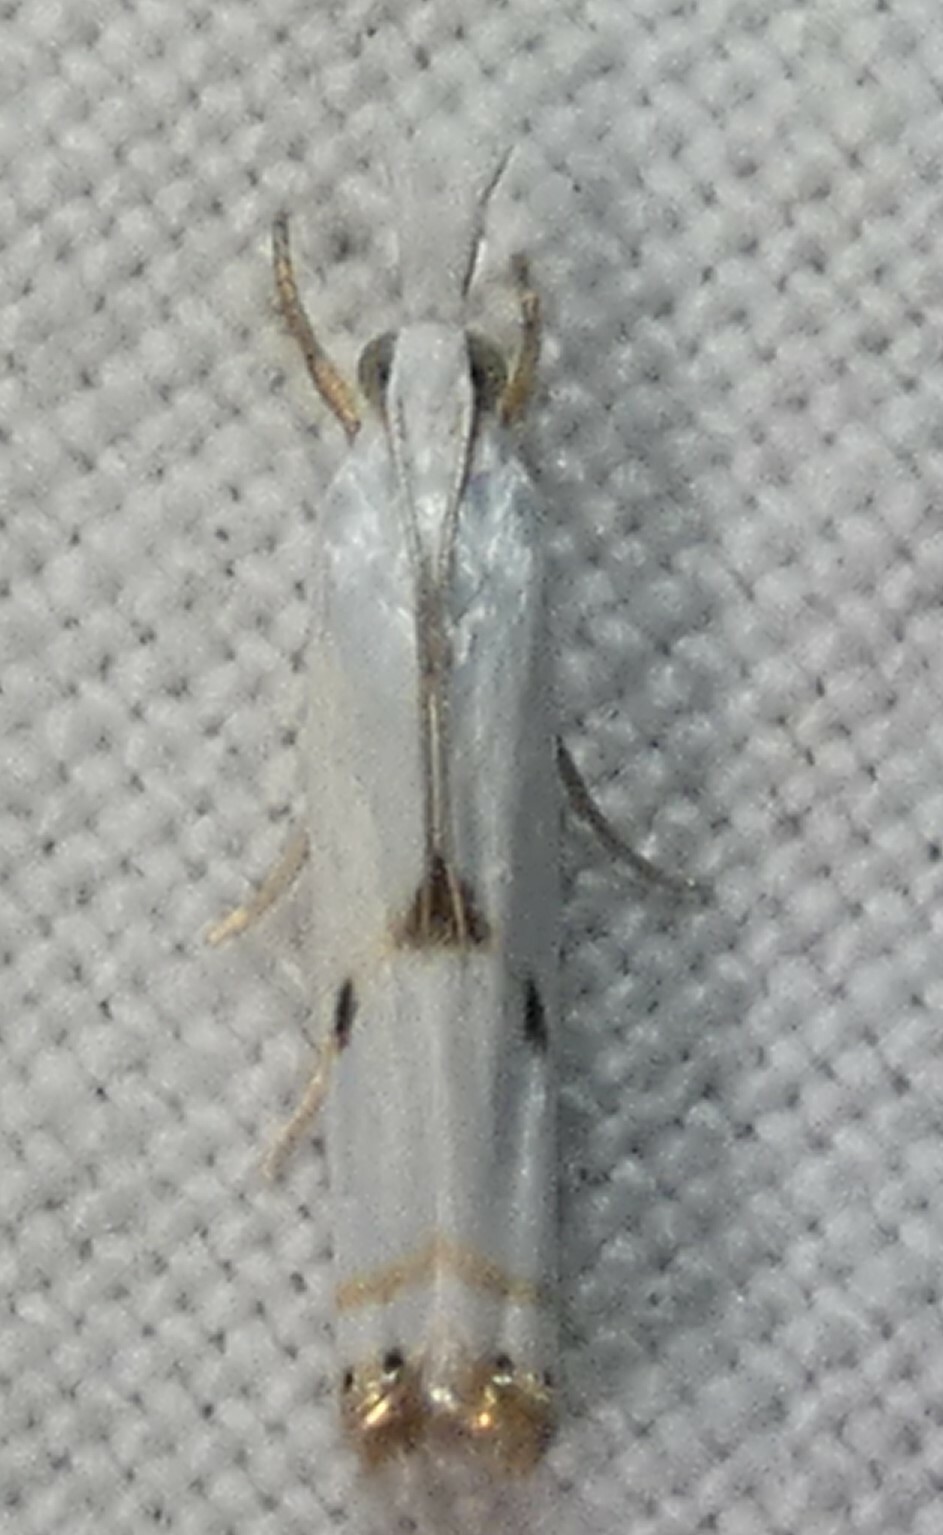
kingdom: Animalia
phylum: Arthropoda
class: Insecta
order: Lepidoptera
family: Crambidae
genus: Microcrambus
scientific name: Microcrambus biguttellus
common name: Gold-stripe grass-veneer moth
